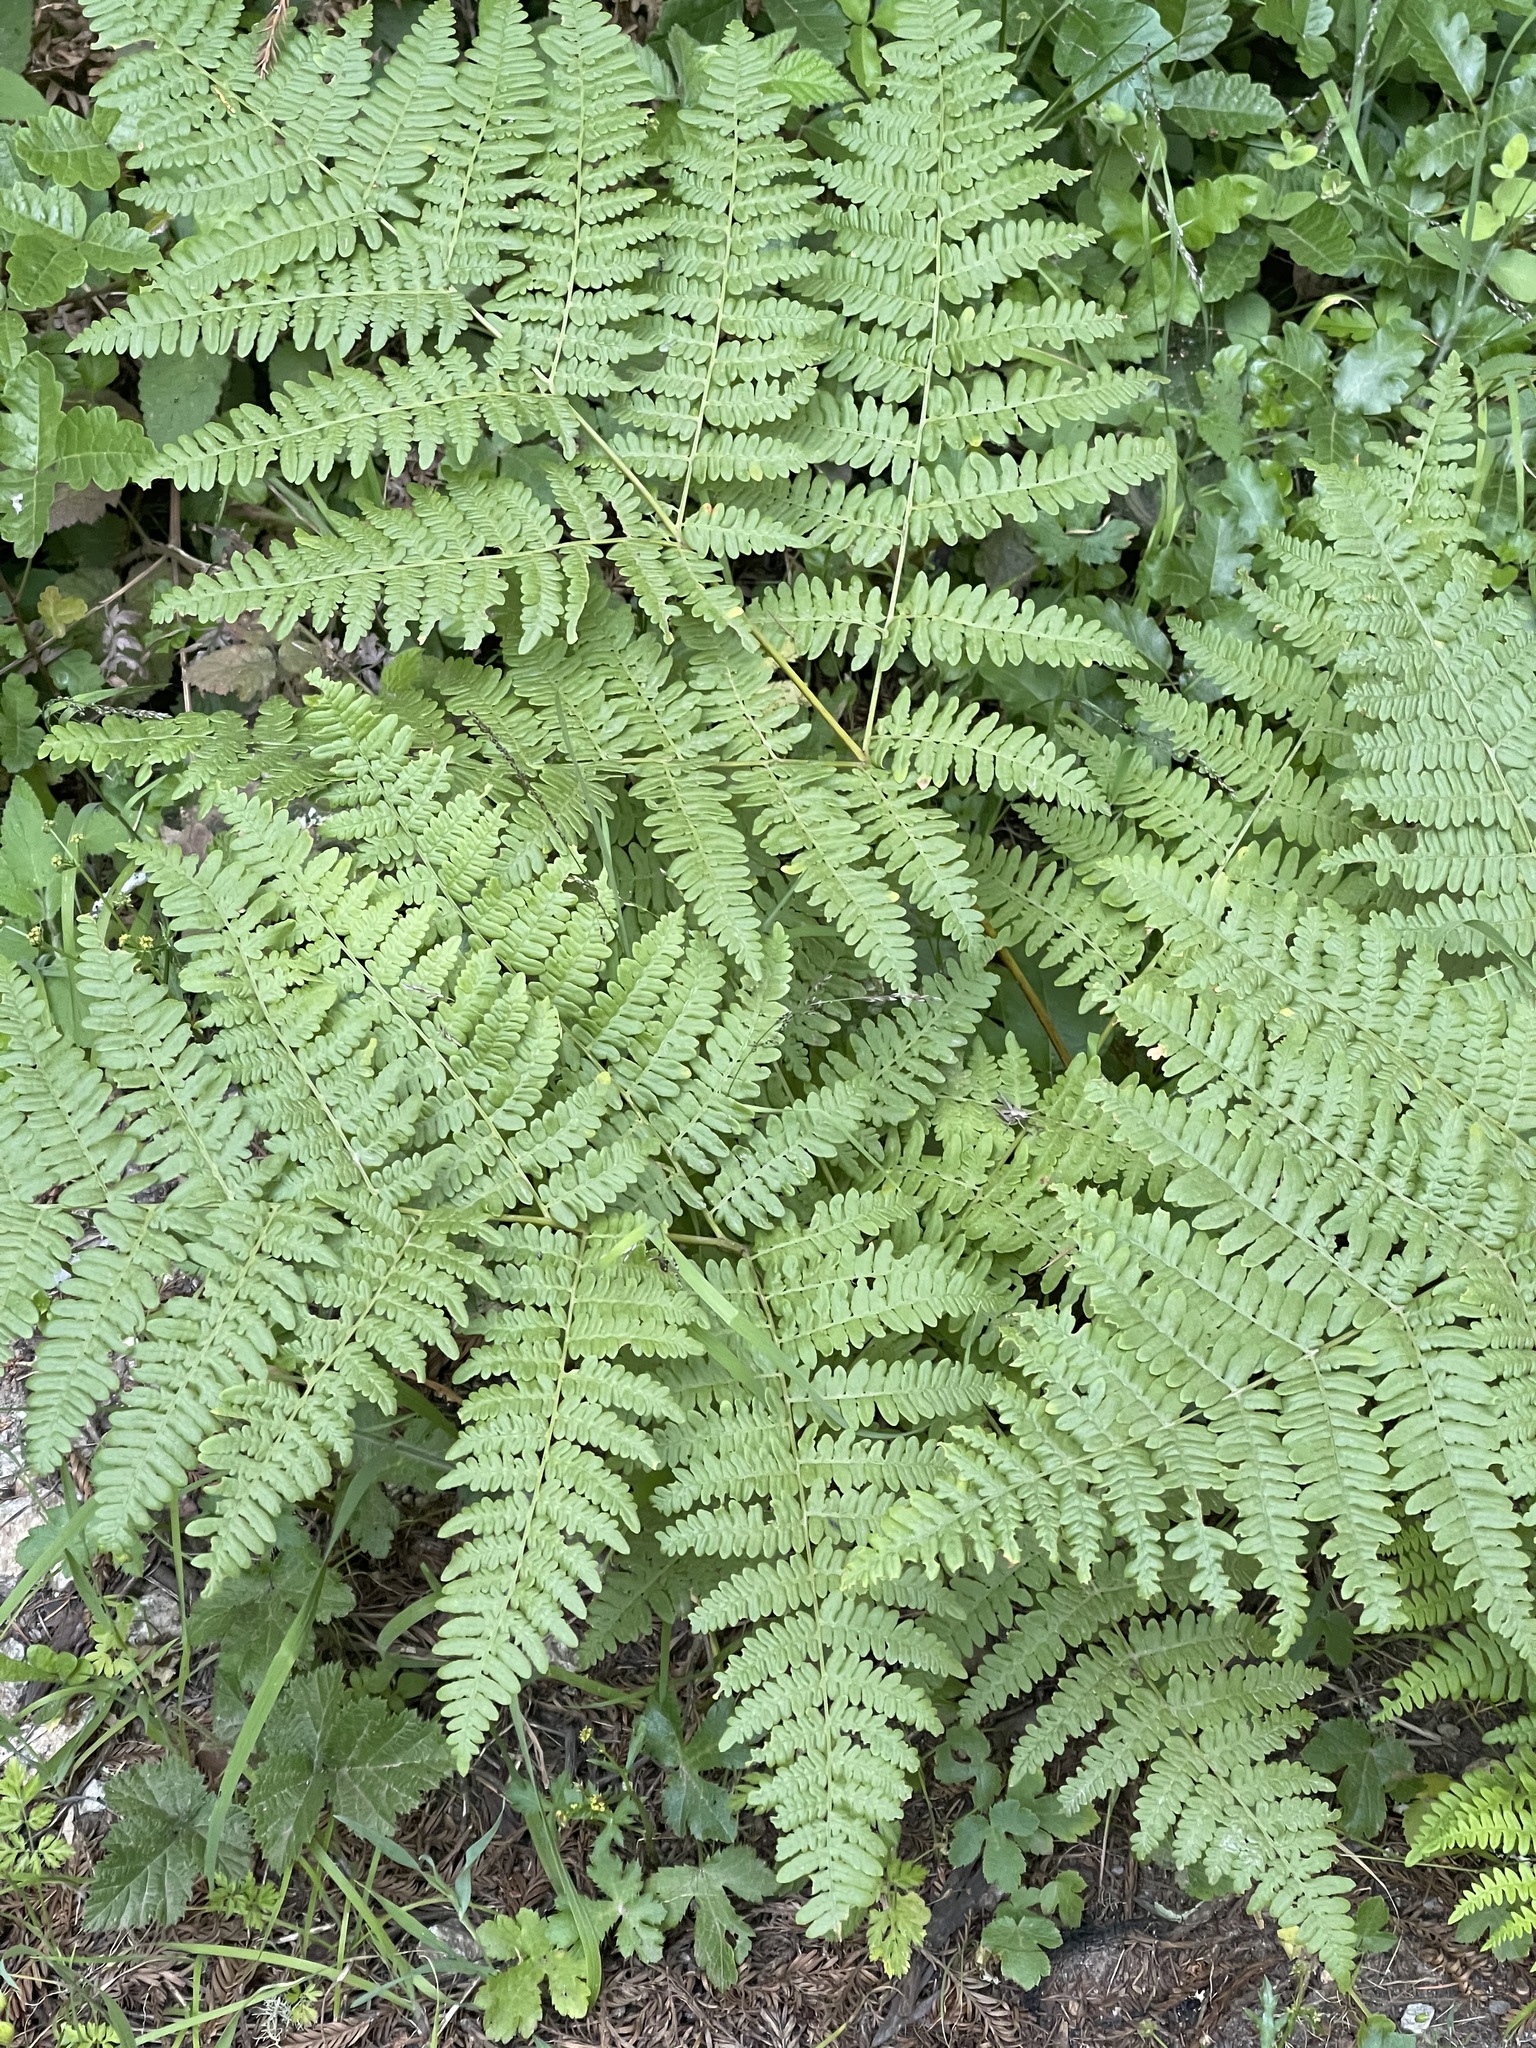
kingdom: Plantae
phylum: Tracheophyta
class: Polypodiopsida
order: Polypodiales
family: Dennstaedtiaceae
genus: Pteridium
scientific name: Pteridium aquilinum
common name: Bracken
